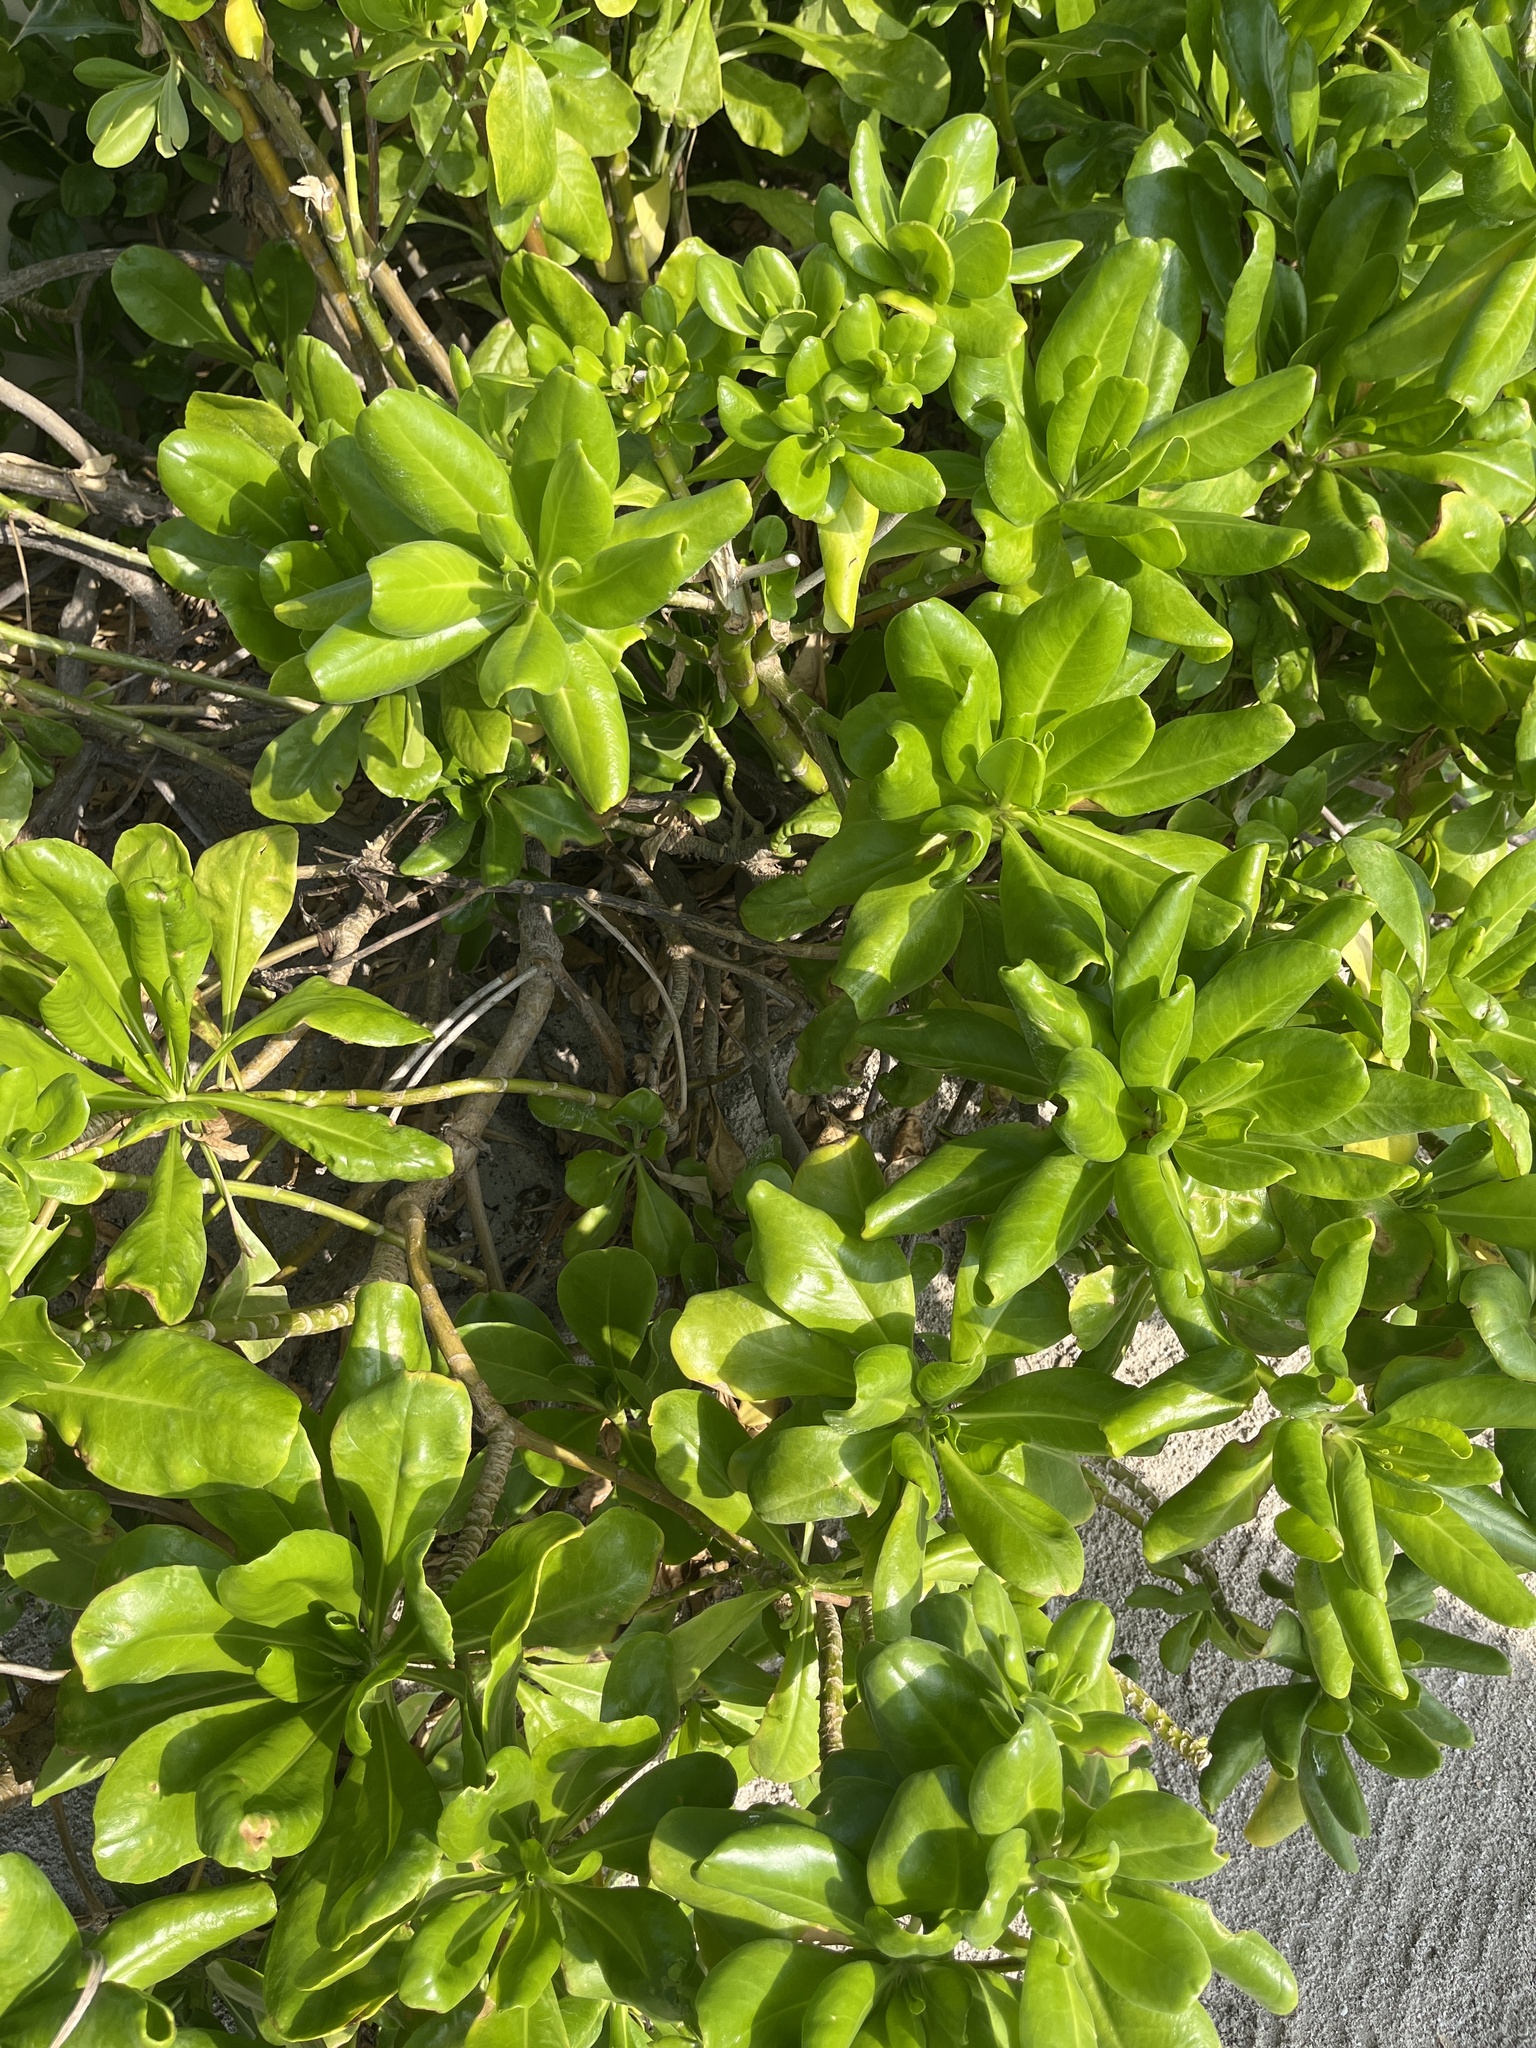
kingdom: Plantae
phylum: Tracheophyta
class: Magnoliopsida
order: Asterales
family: Goodeniaceae
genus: Scaevola
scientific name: Scaevola taccada
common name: Sea lettucetree
